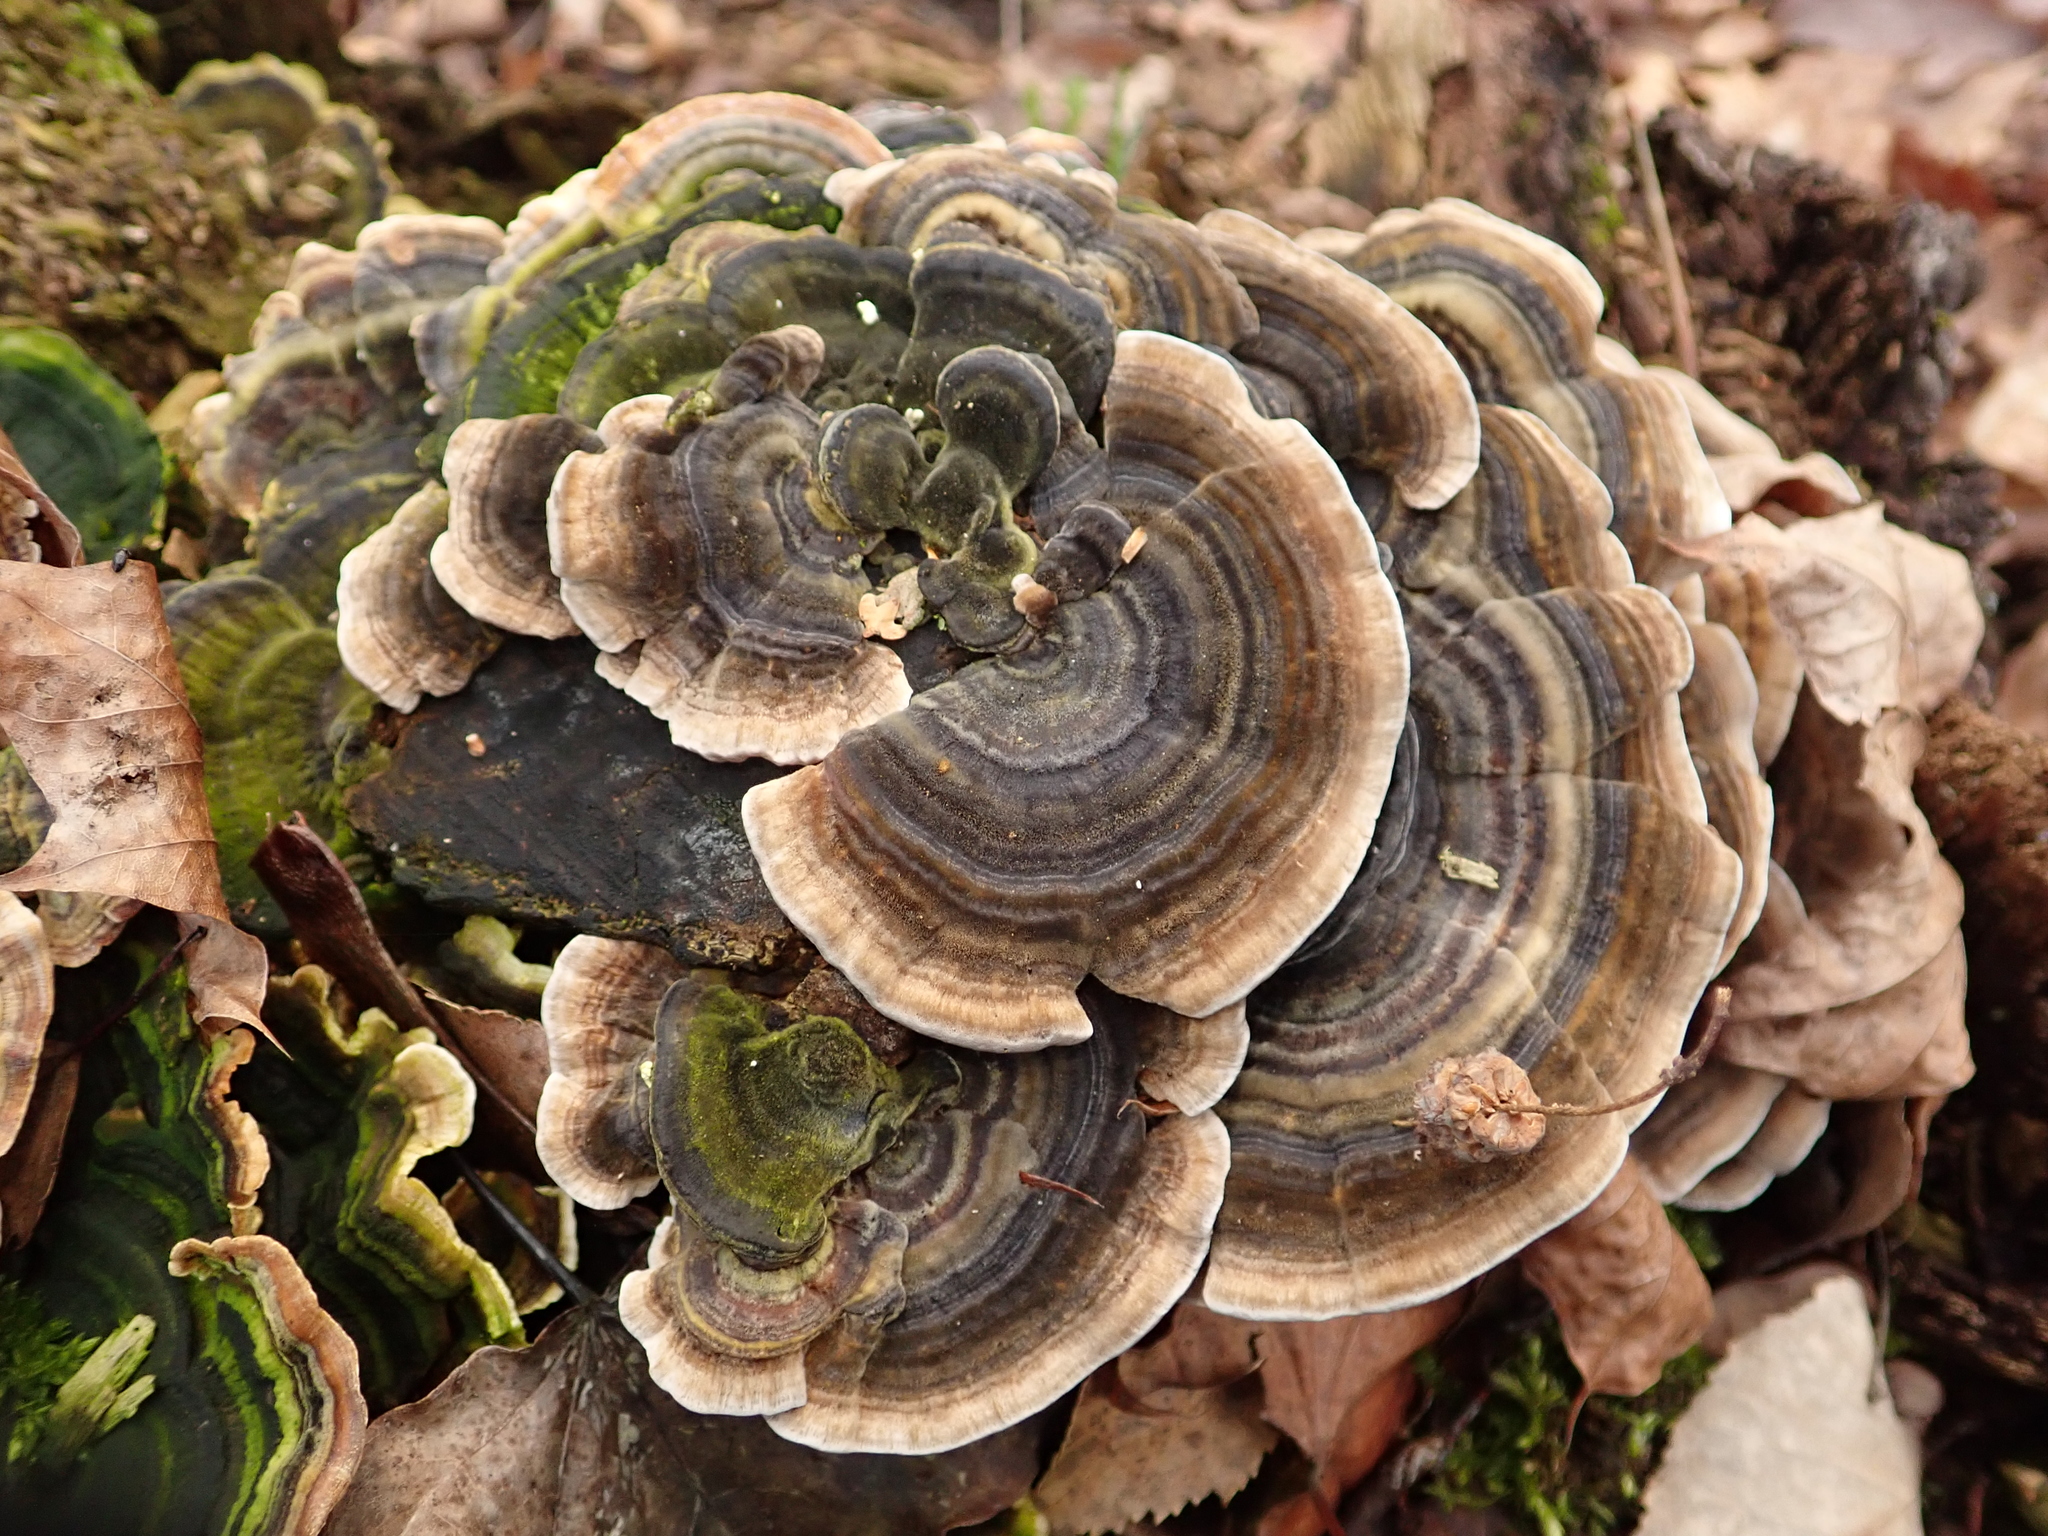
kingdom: Fungi
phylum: Basidiomycota
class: Agaricomycetes
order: Polyporales
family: Polyporaceae
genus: Trametes
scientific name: Trametes versicolor
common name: Turkeytail
